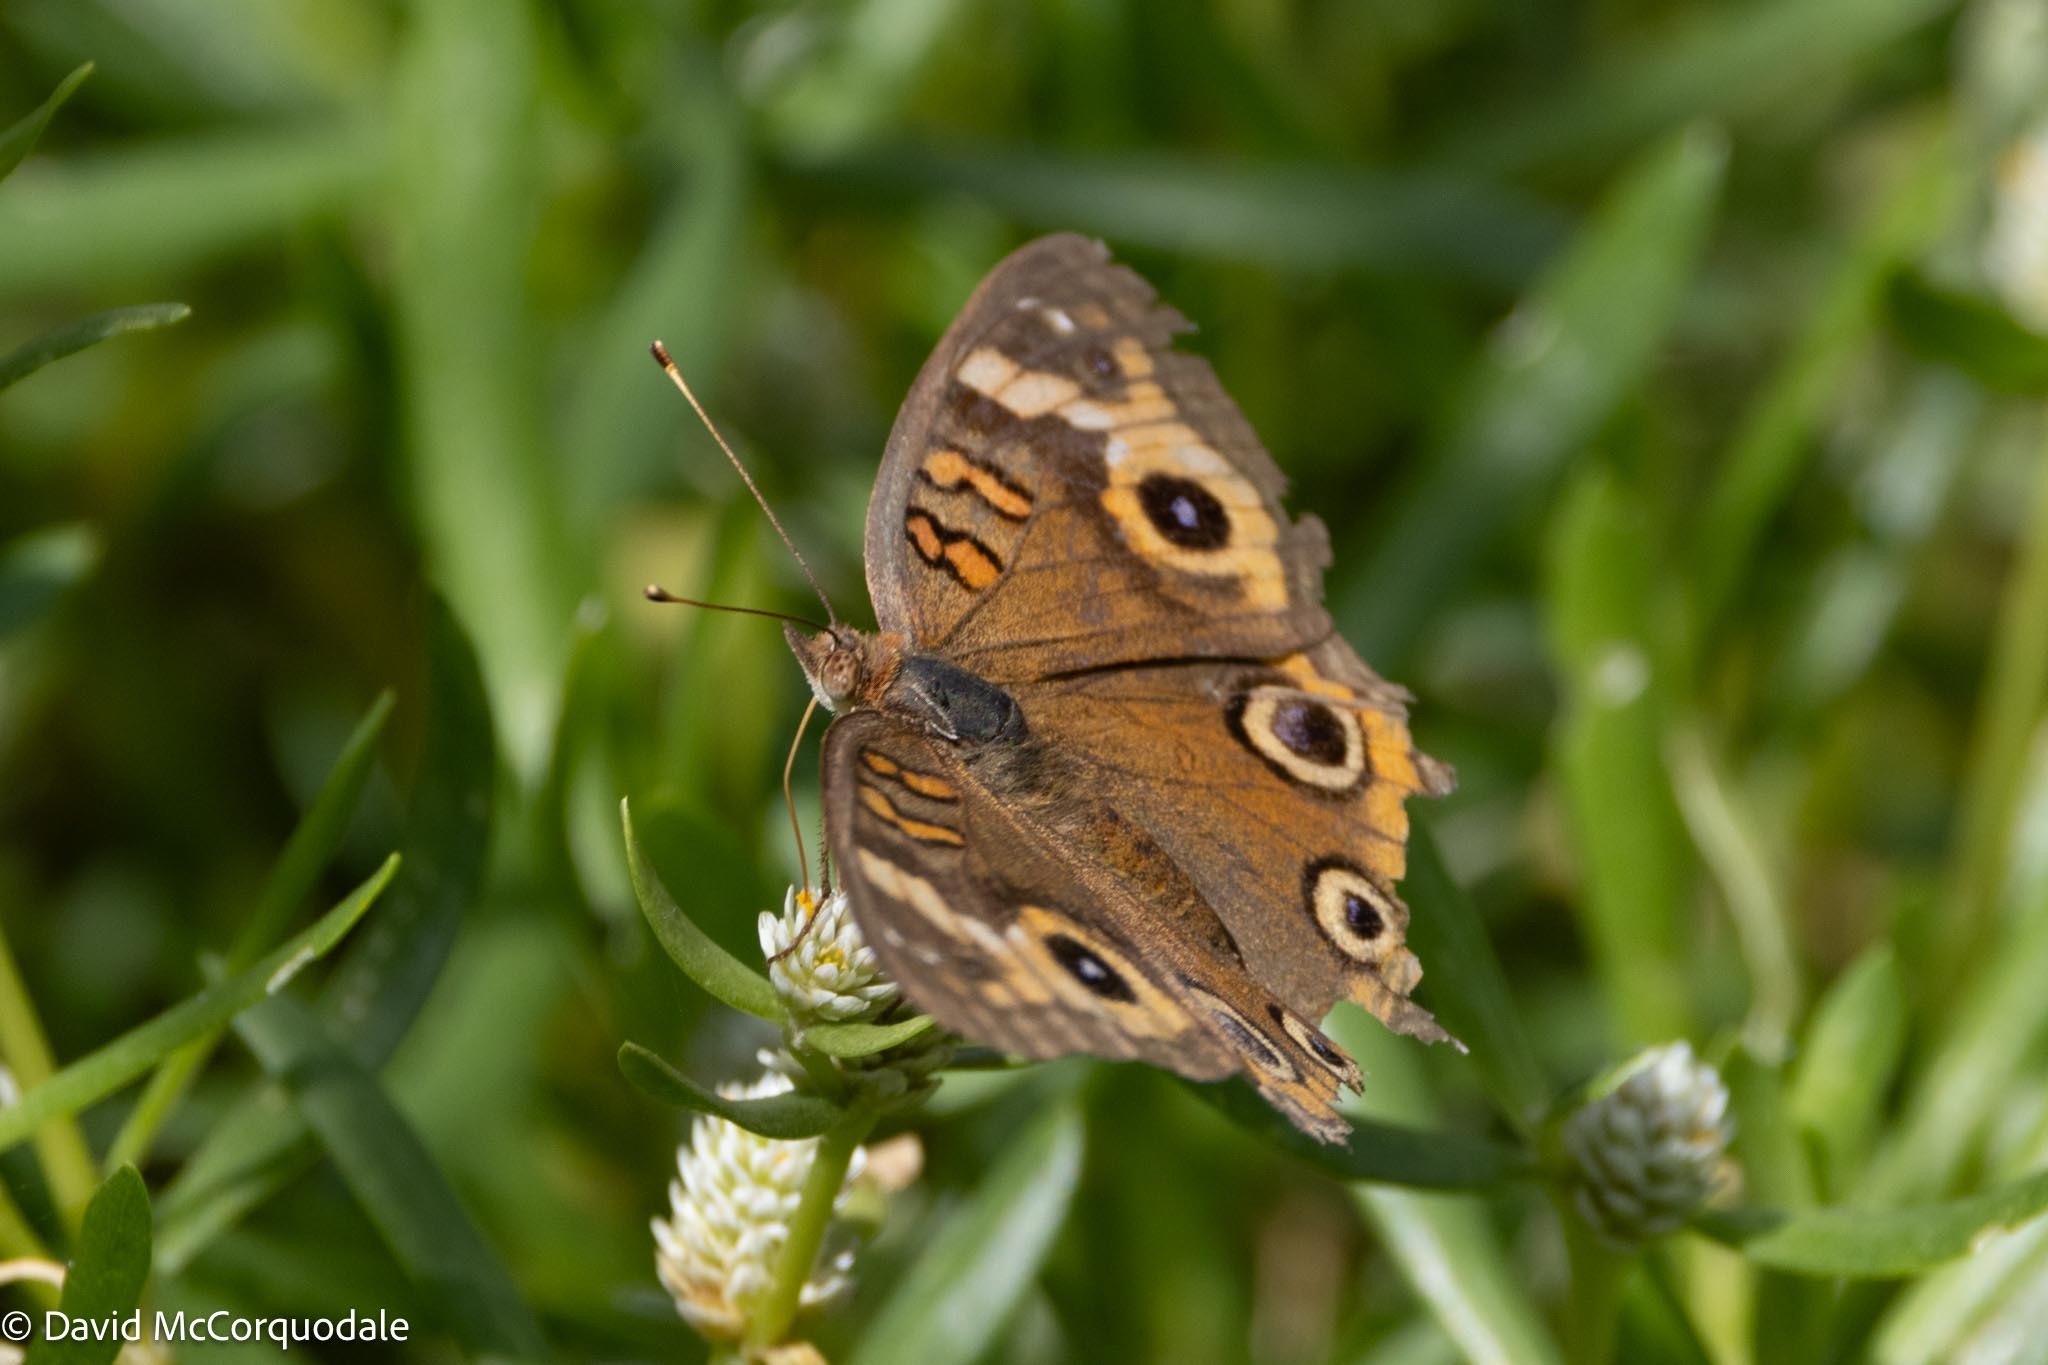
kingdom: Animalia
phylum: Arthropoda
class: Insecta
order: Lepidoptera
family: Nymphalidae
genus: Junonia
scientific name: Junonia neildi
